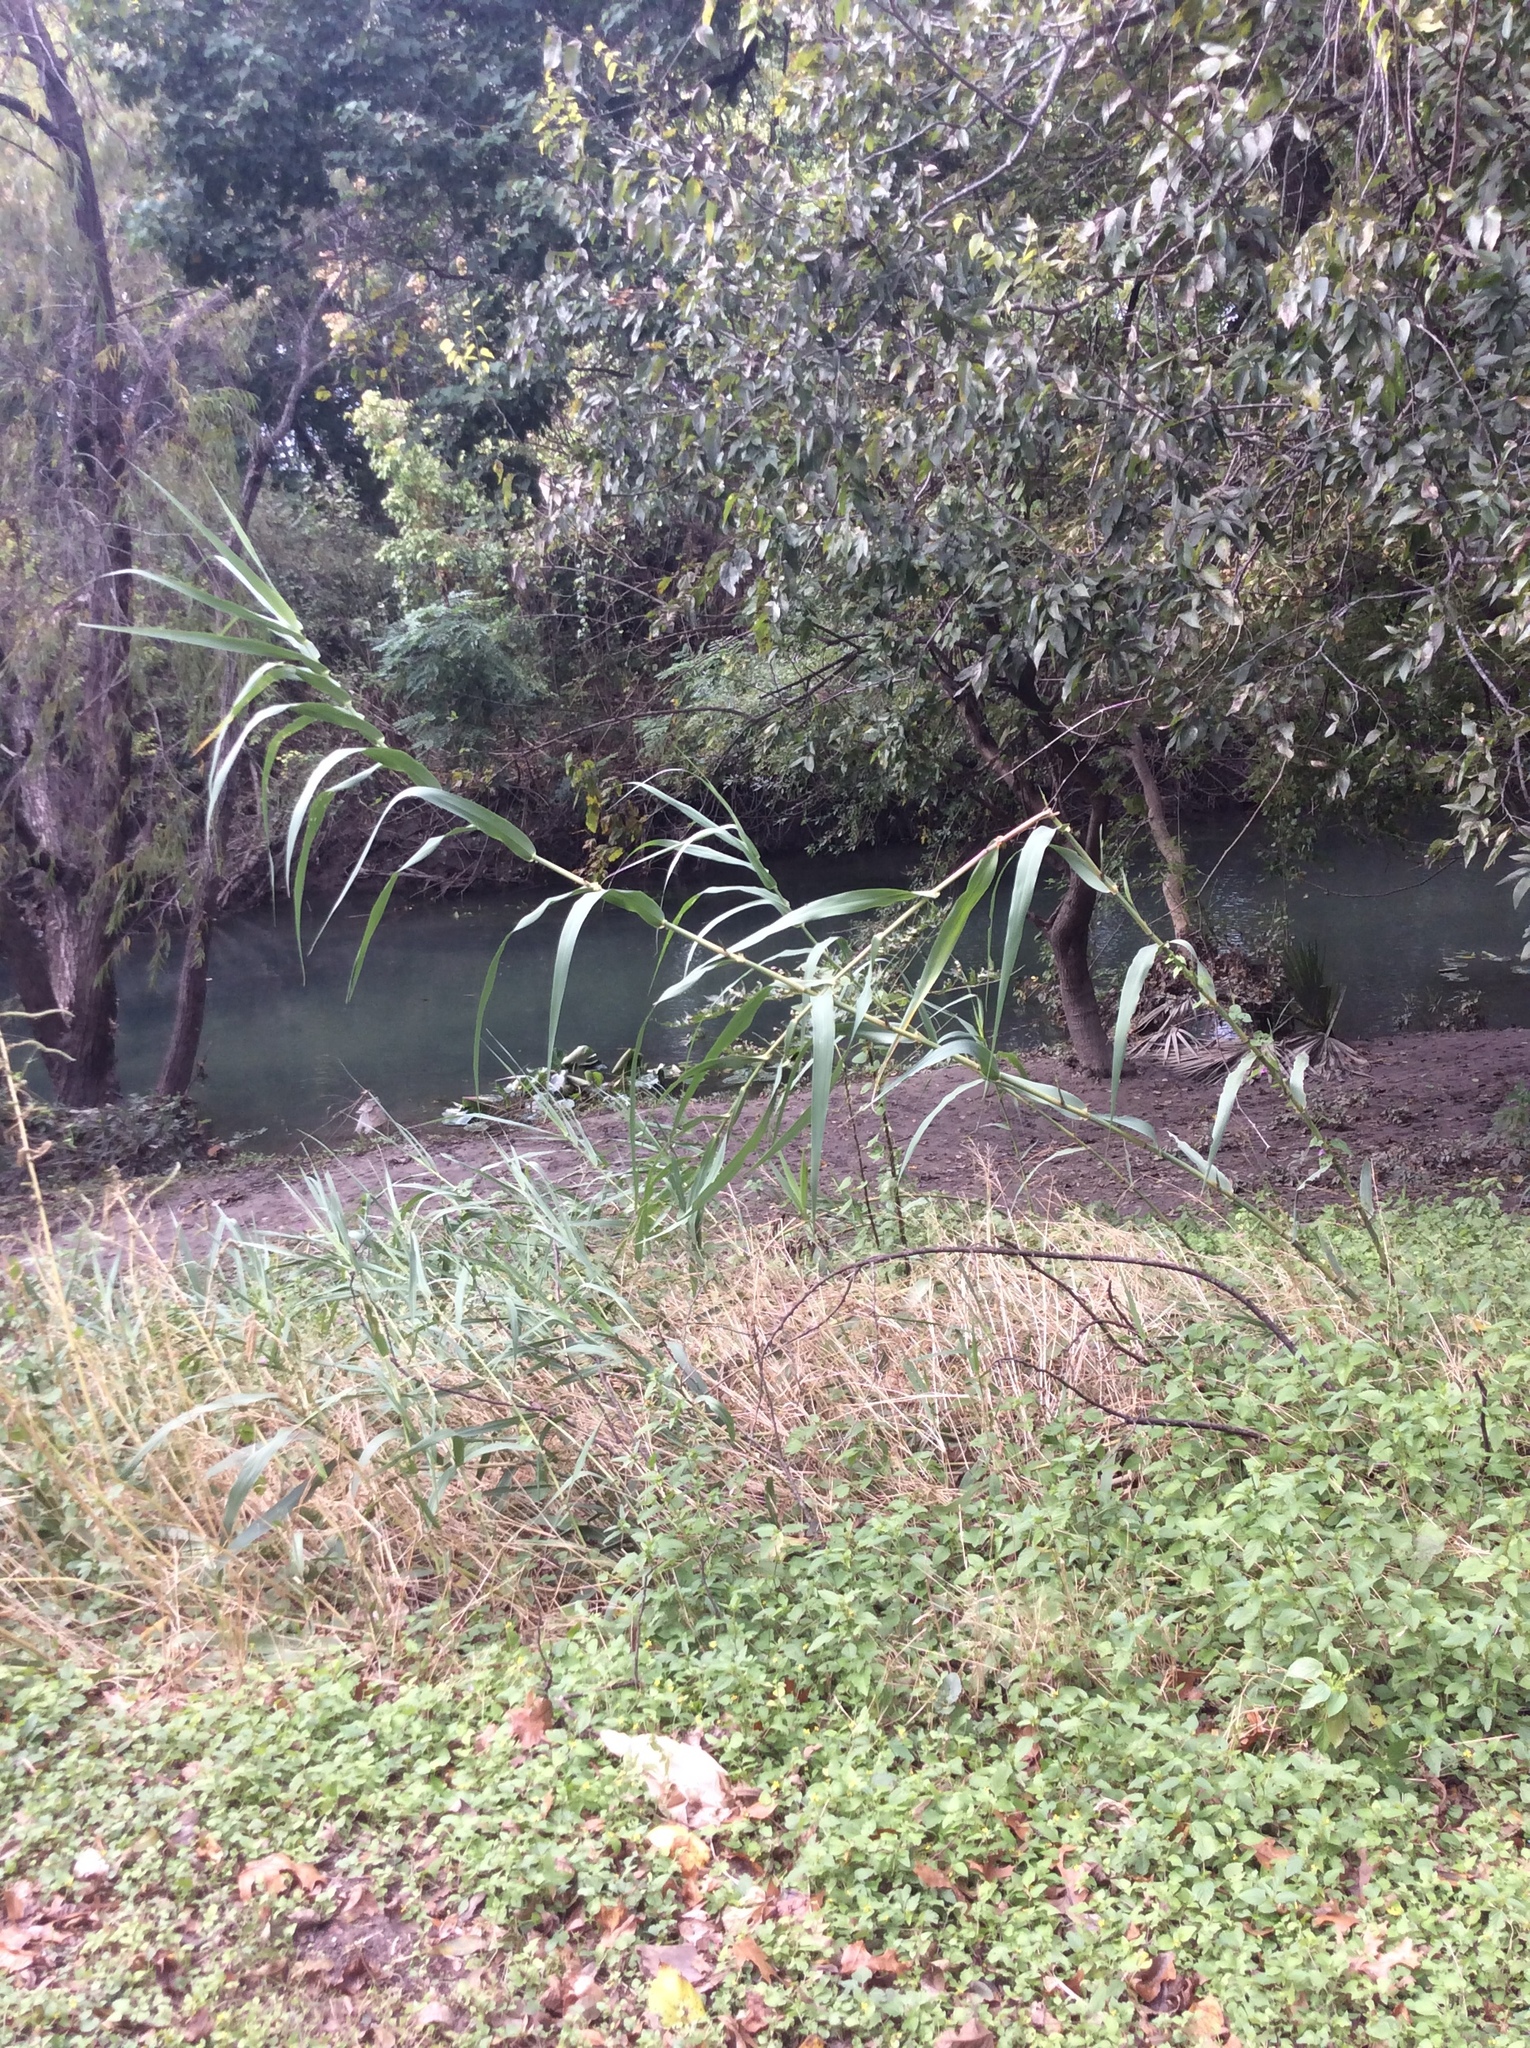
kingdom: Plantae
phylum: Tracheophyta
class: Liliopsida
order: Poales
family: Poaceae
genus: Arundo
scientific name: Arundo donax
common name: Giant reed
